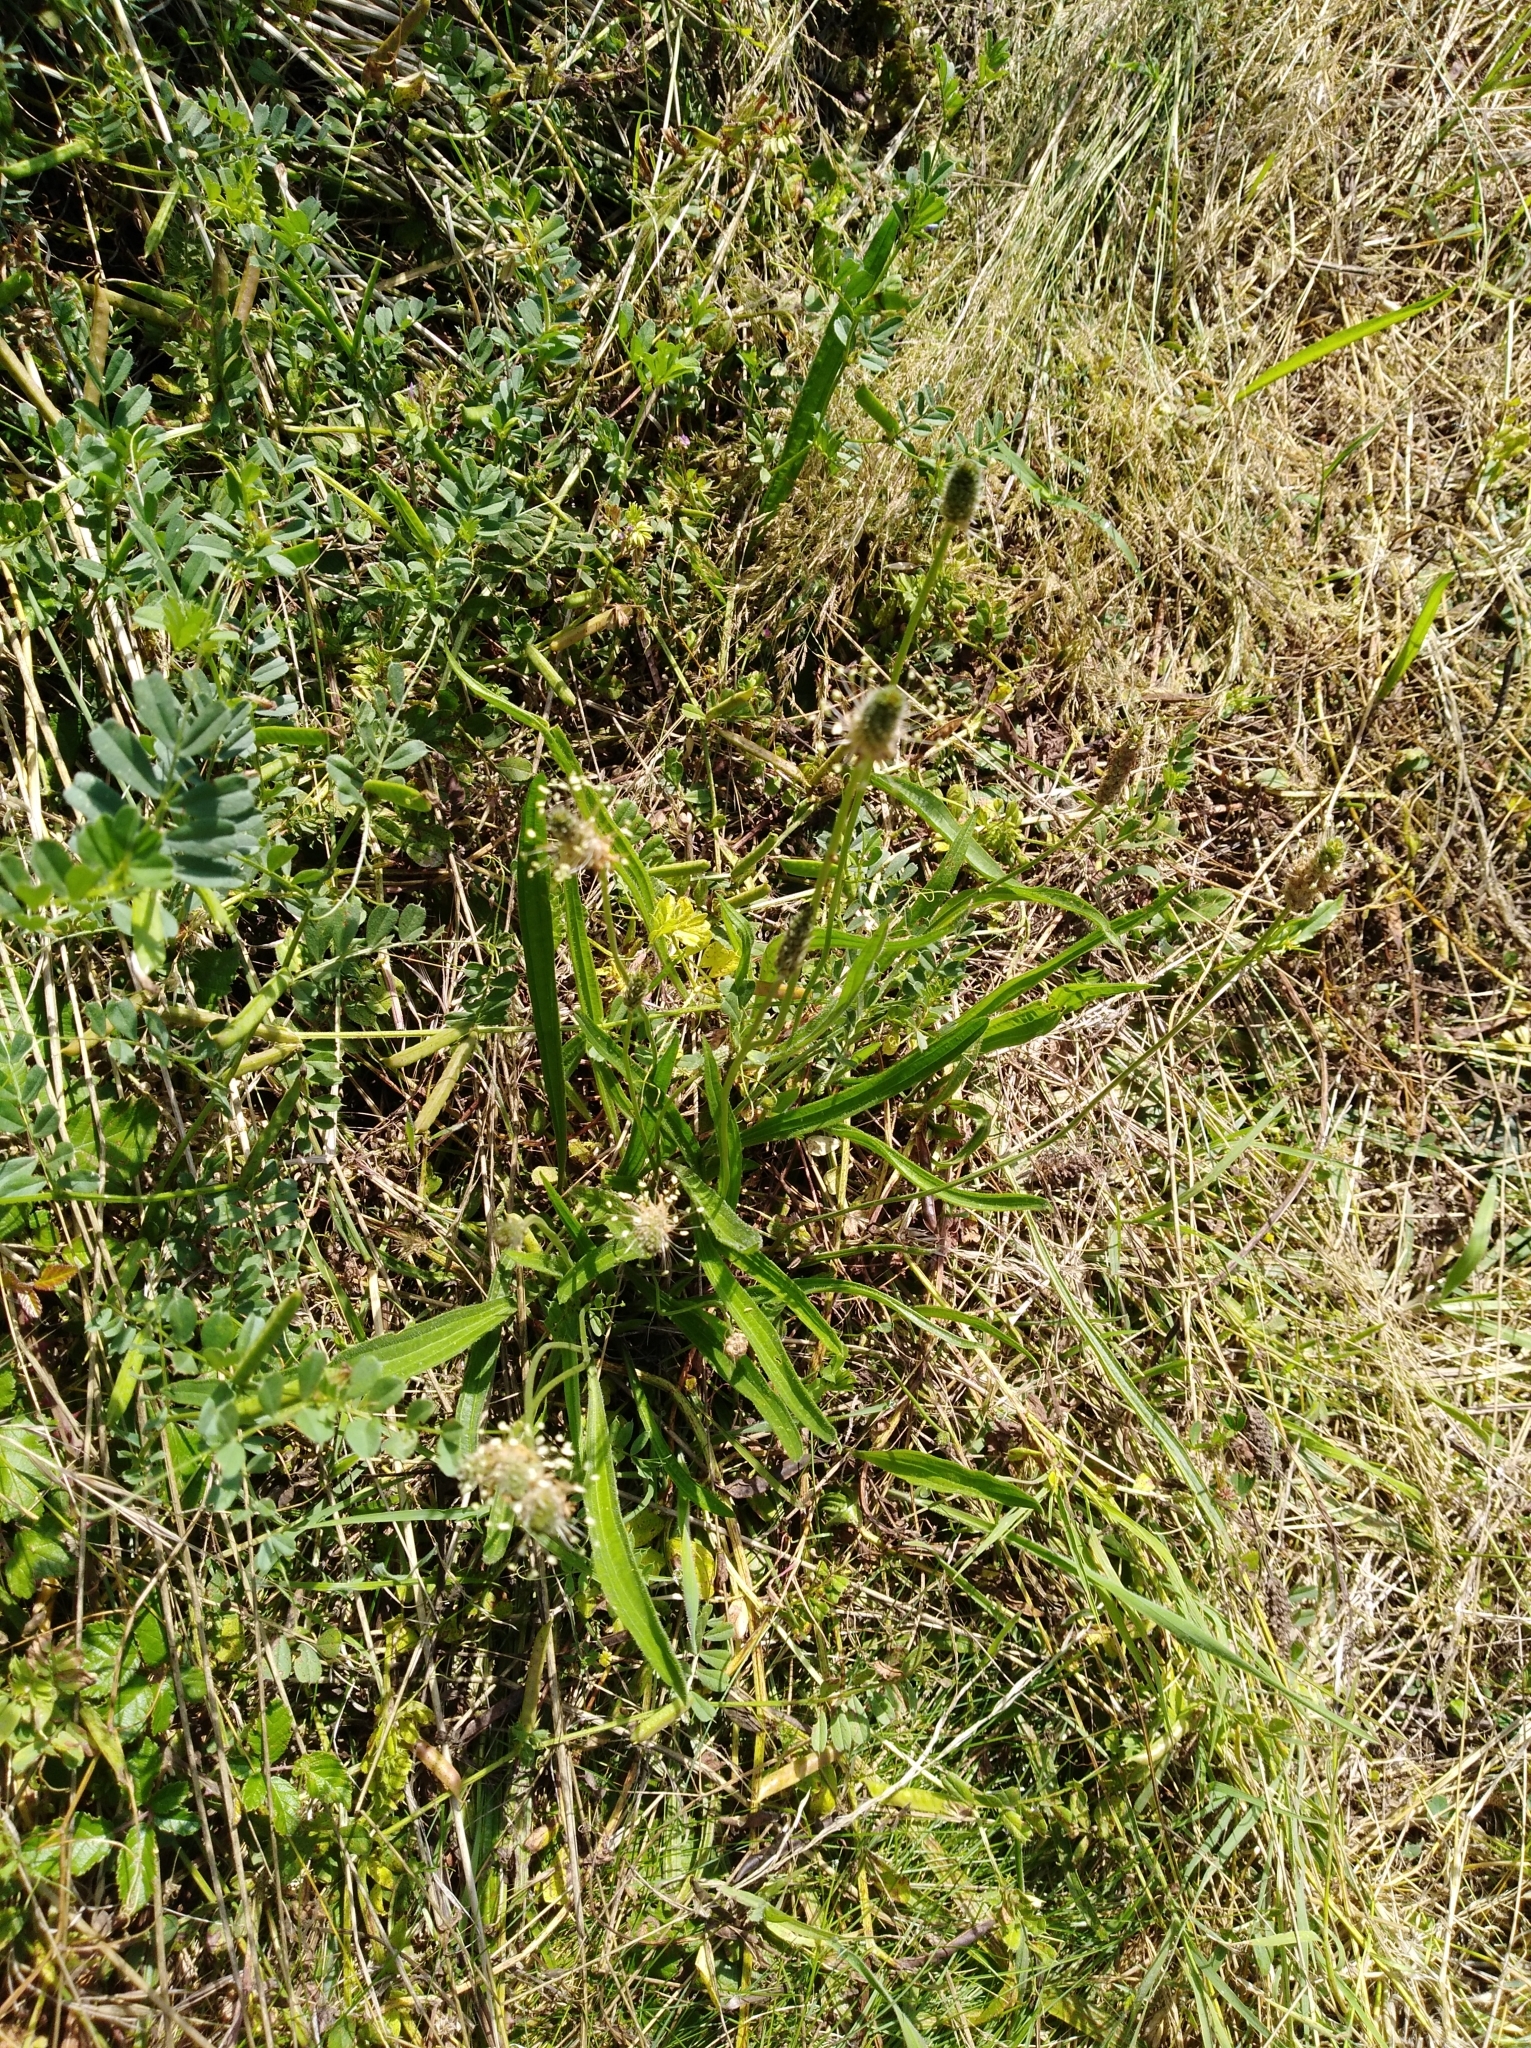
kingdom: Plantae
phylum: Tracheophyta
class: Magnoliopsida
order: Lamiales
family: Plantaginaceae
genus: Plantago
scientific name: Plantago lanceolata
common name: Ribwort plantain
